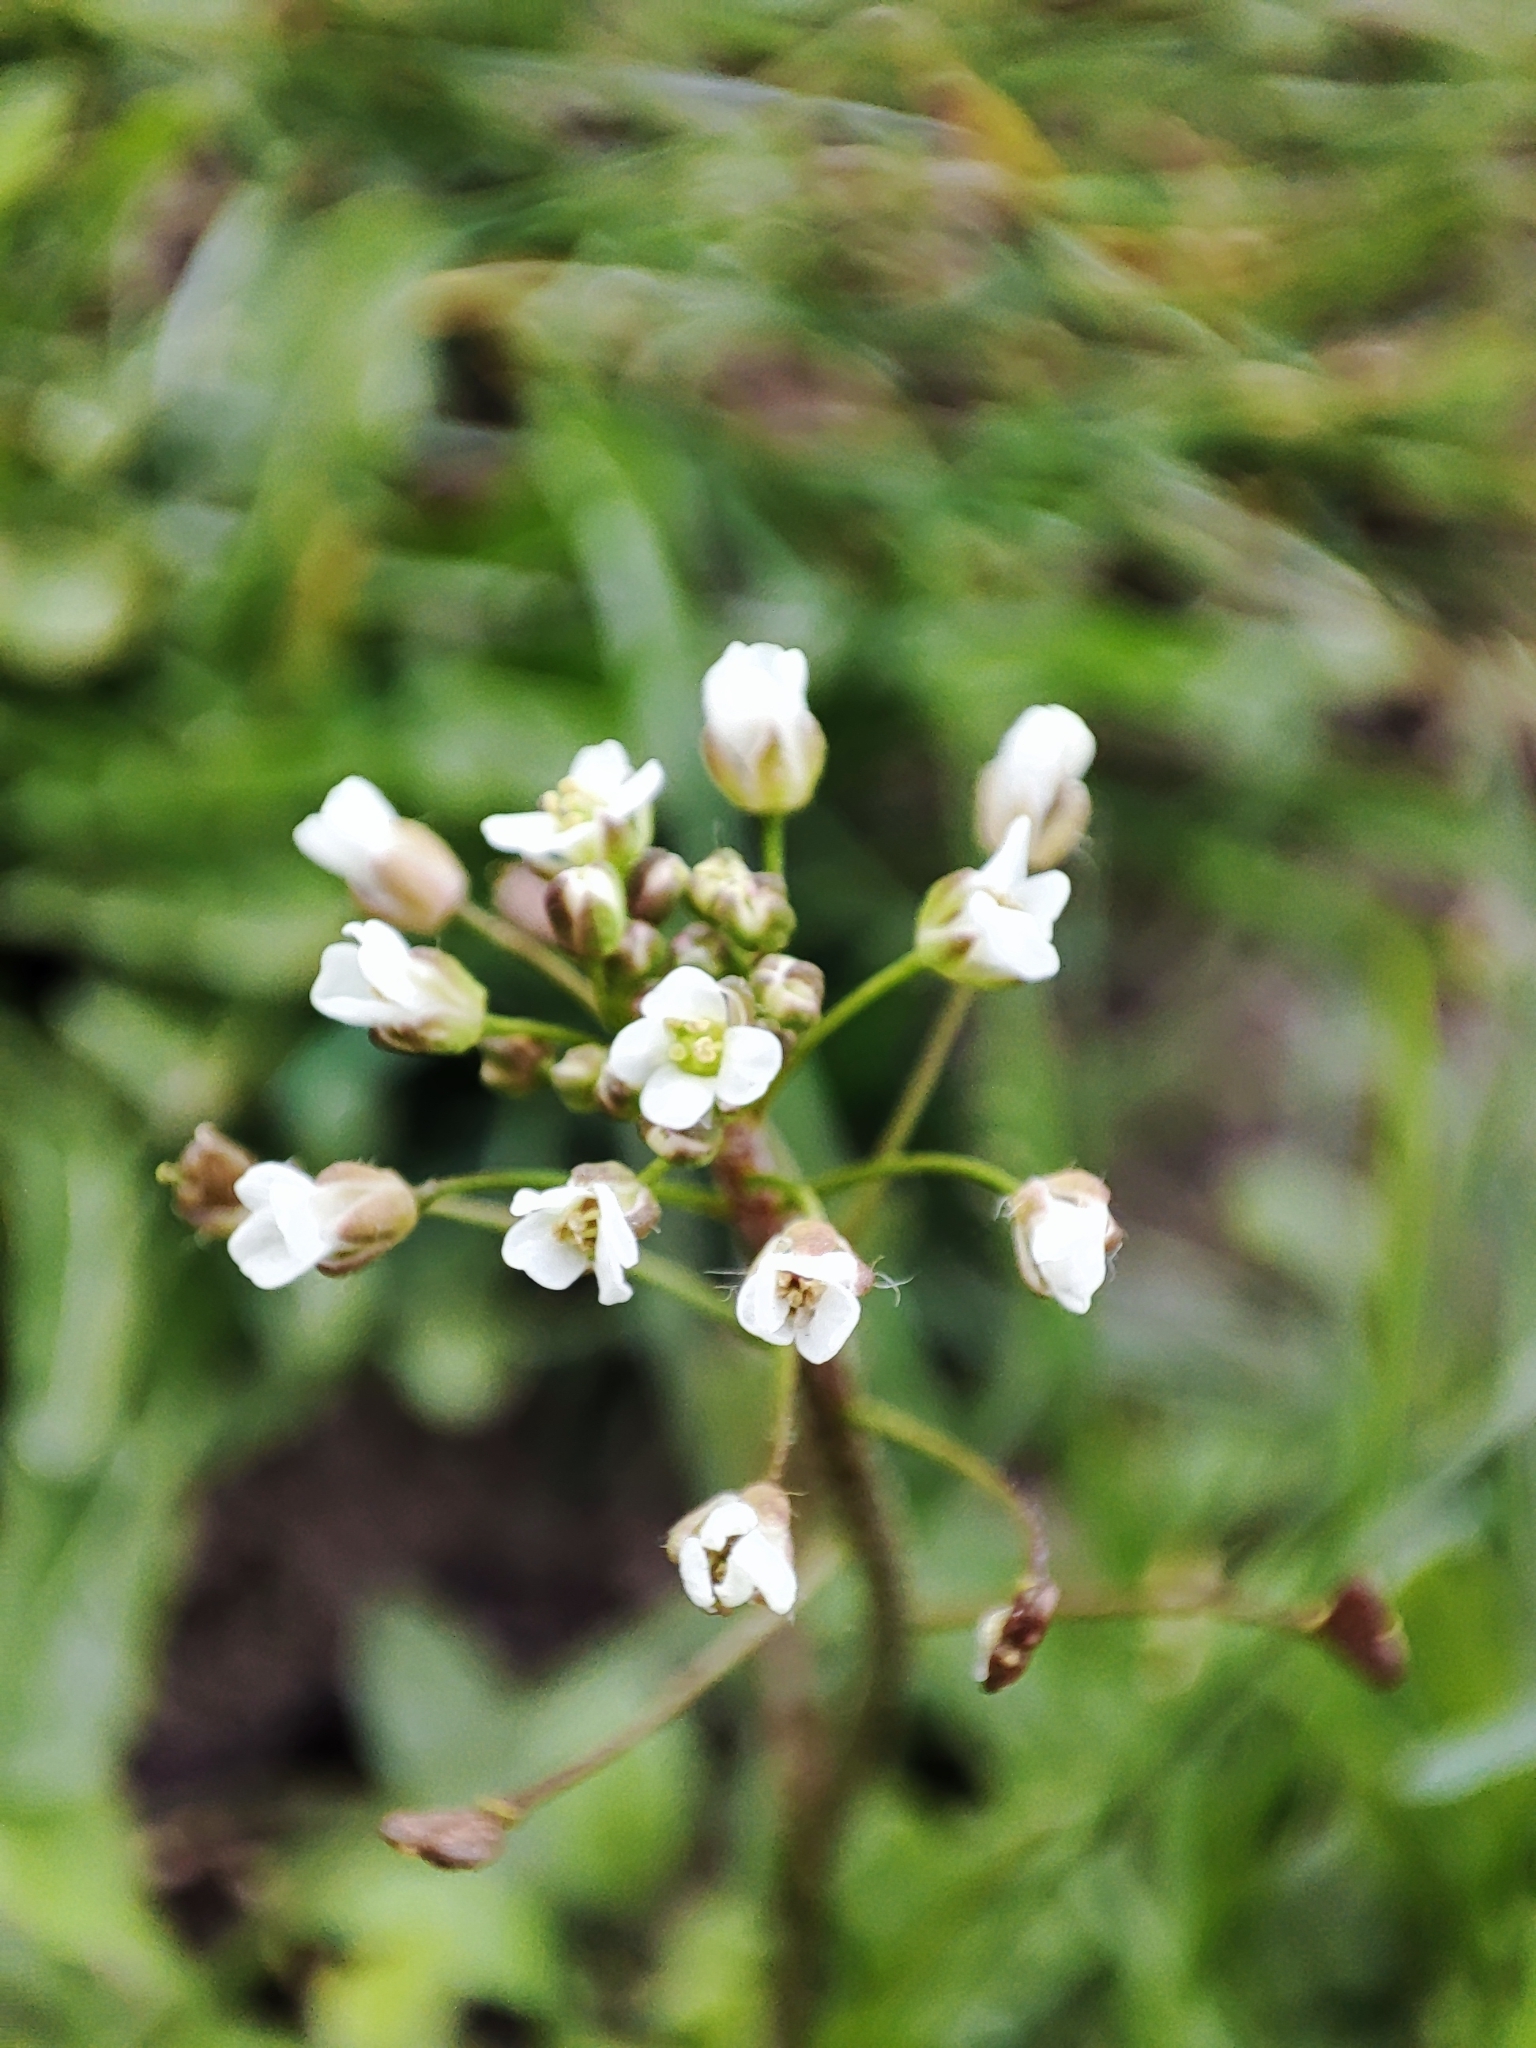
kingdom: Plantae
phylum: Tracheophyta
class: Magnoliopsida
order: Brassicales
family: Brassicaceae
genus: Capsella
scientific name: Capsella bursa-pastoris
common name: Shepherd's purse
